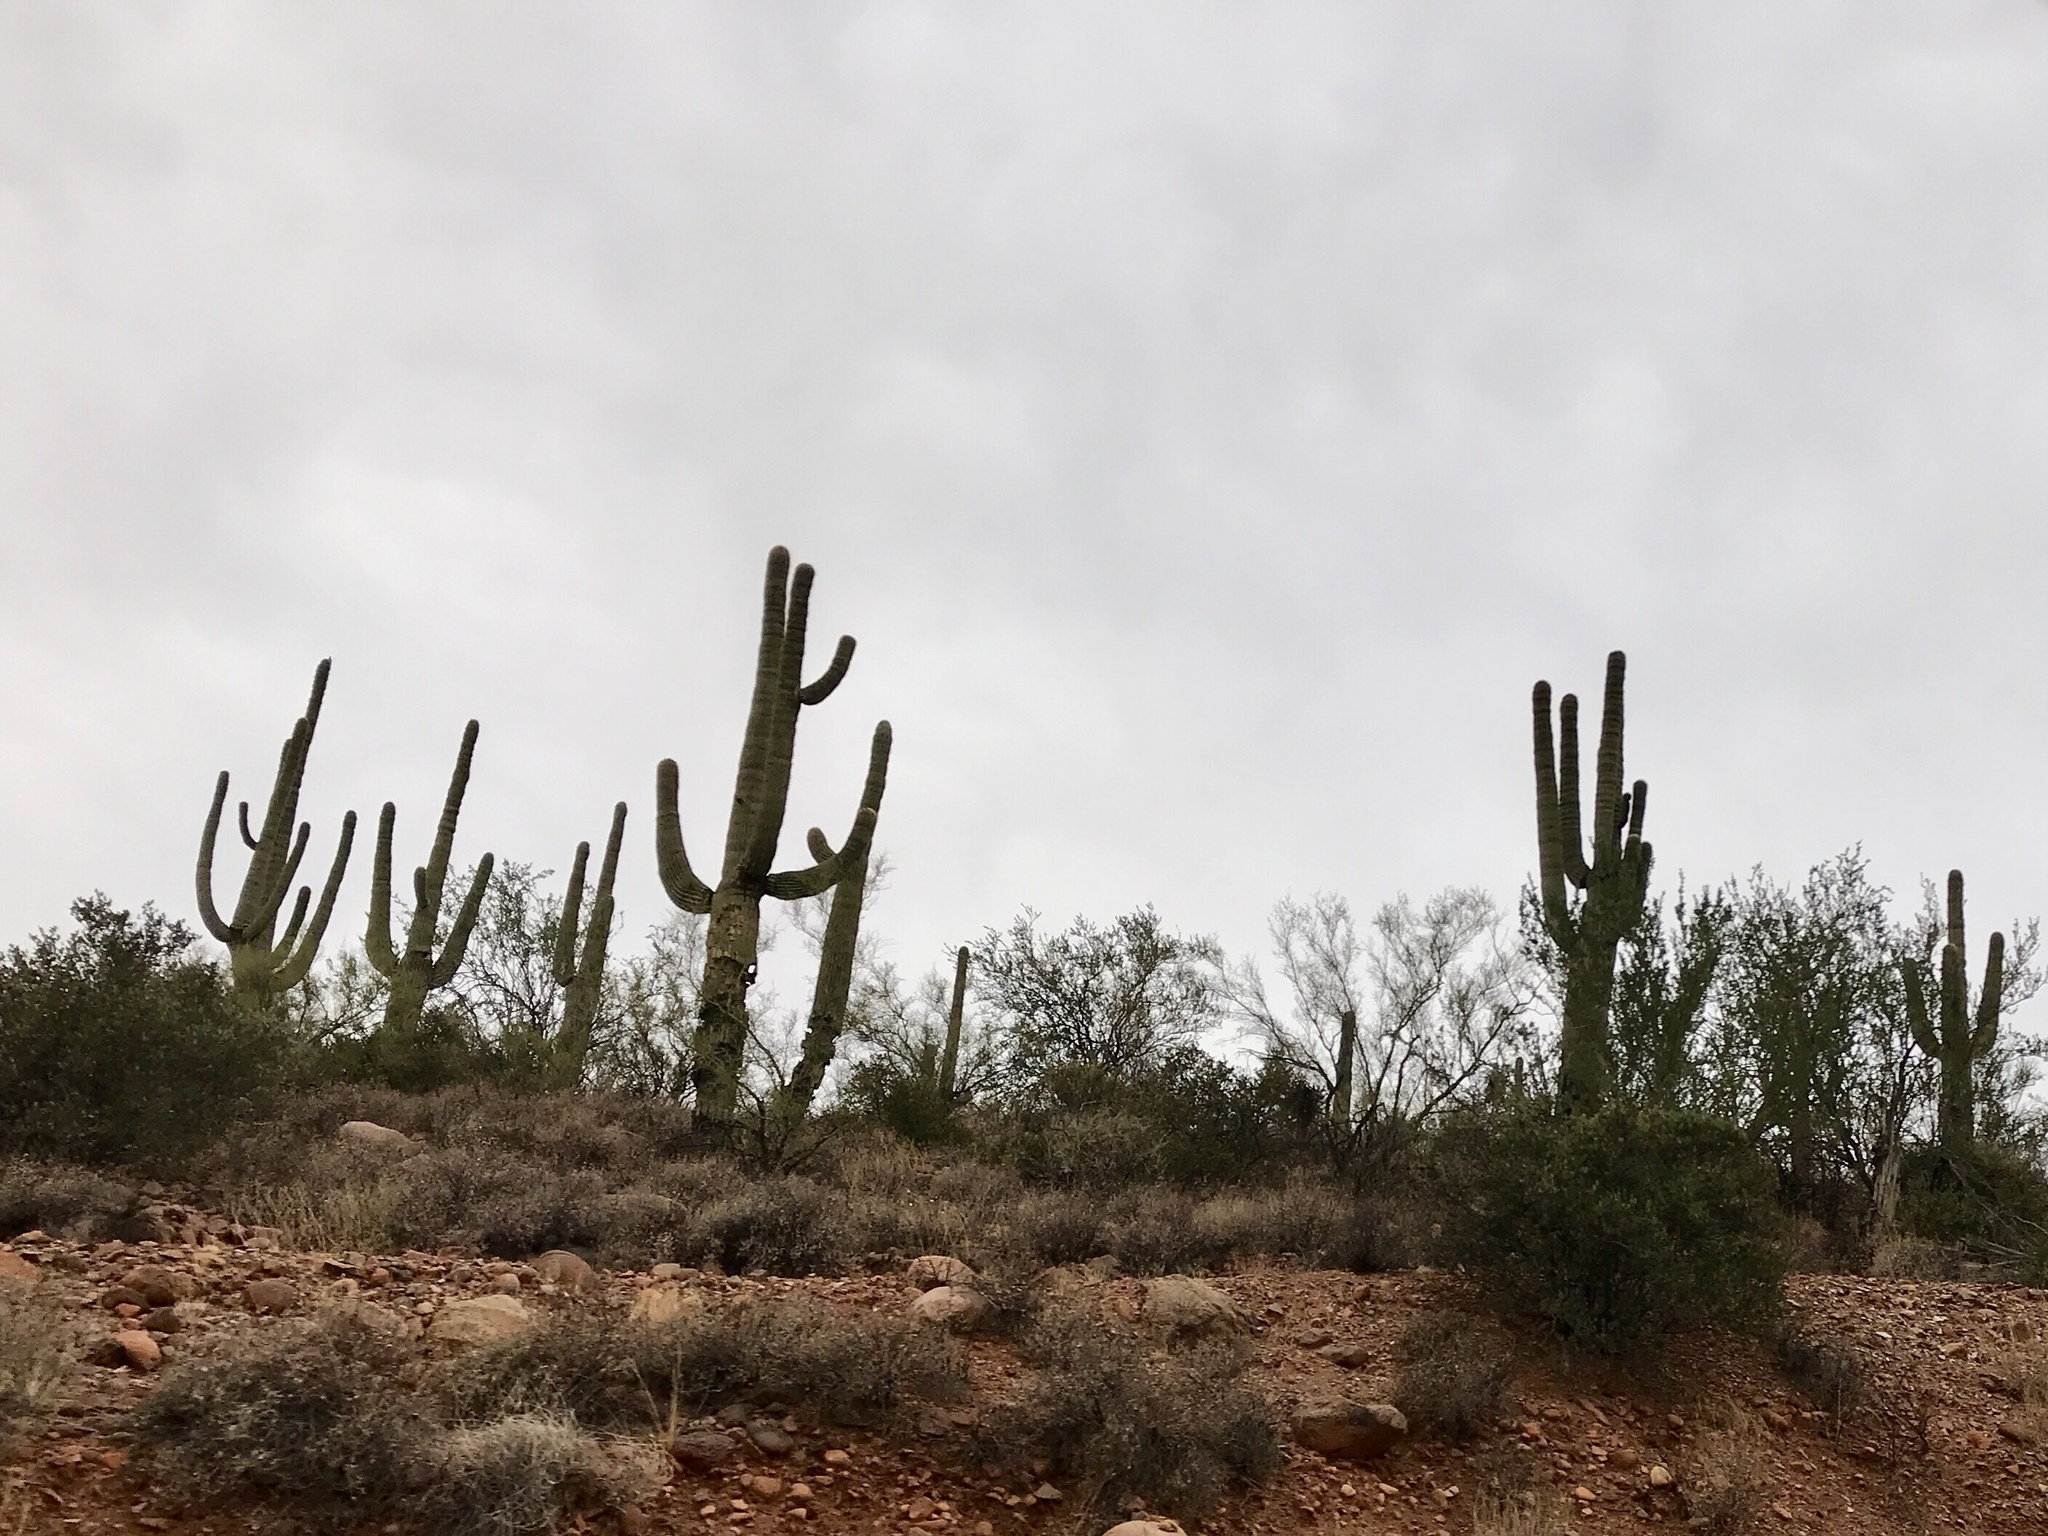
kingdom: Plantae
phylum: Tracheophyta
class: Magnoliopsida
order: Caryophyllales
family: Cactaceae
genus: Carnegiea
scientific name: Carnegiea gigantea
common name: Saguaro
